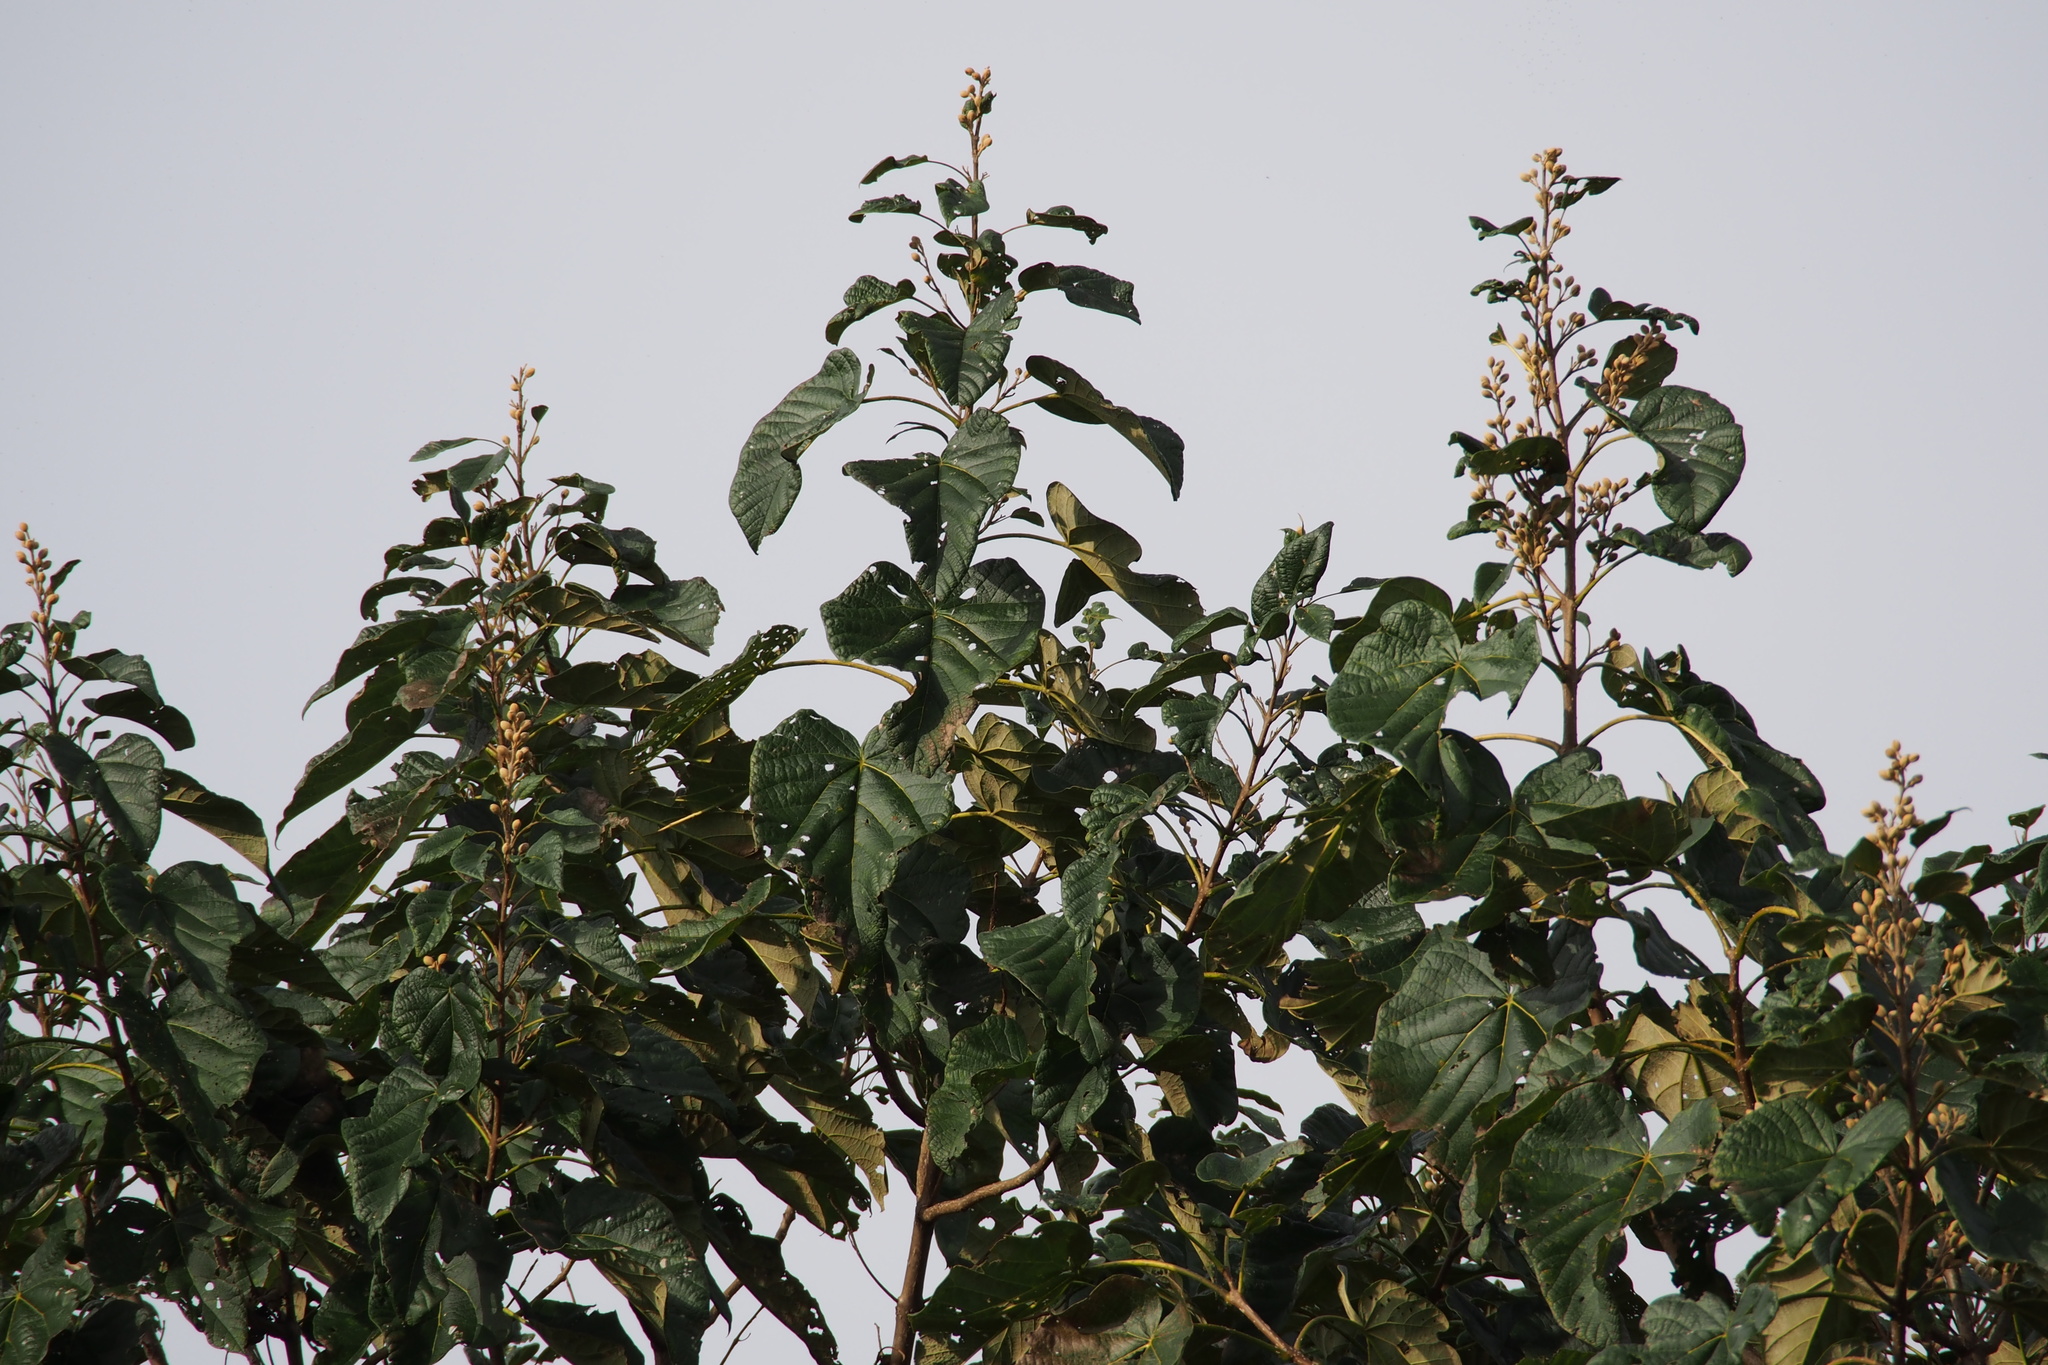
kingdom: Plantae
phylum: Tracheophyta
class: Magnoliopsida
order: Lamiales
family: Paulowniaceae
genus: Paulownia
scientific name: Paulownia tomentosa
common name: Foxglove-tree
